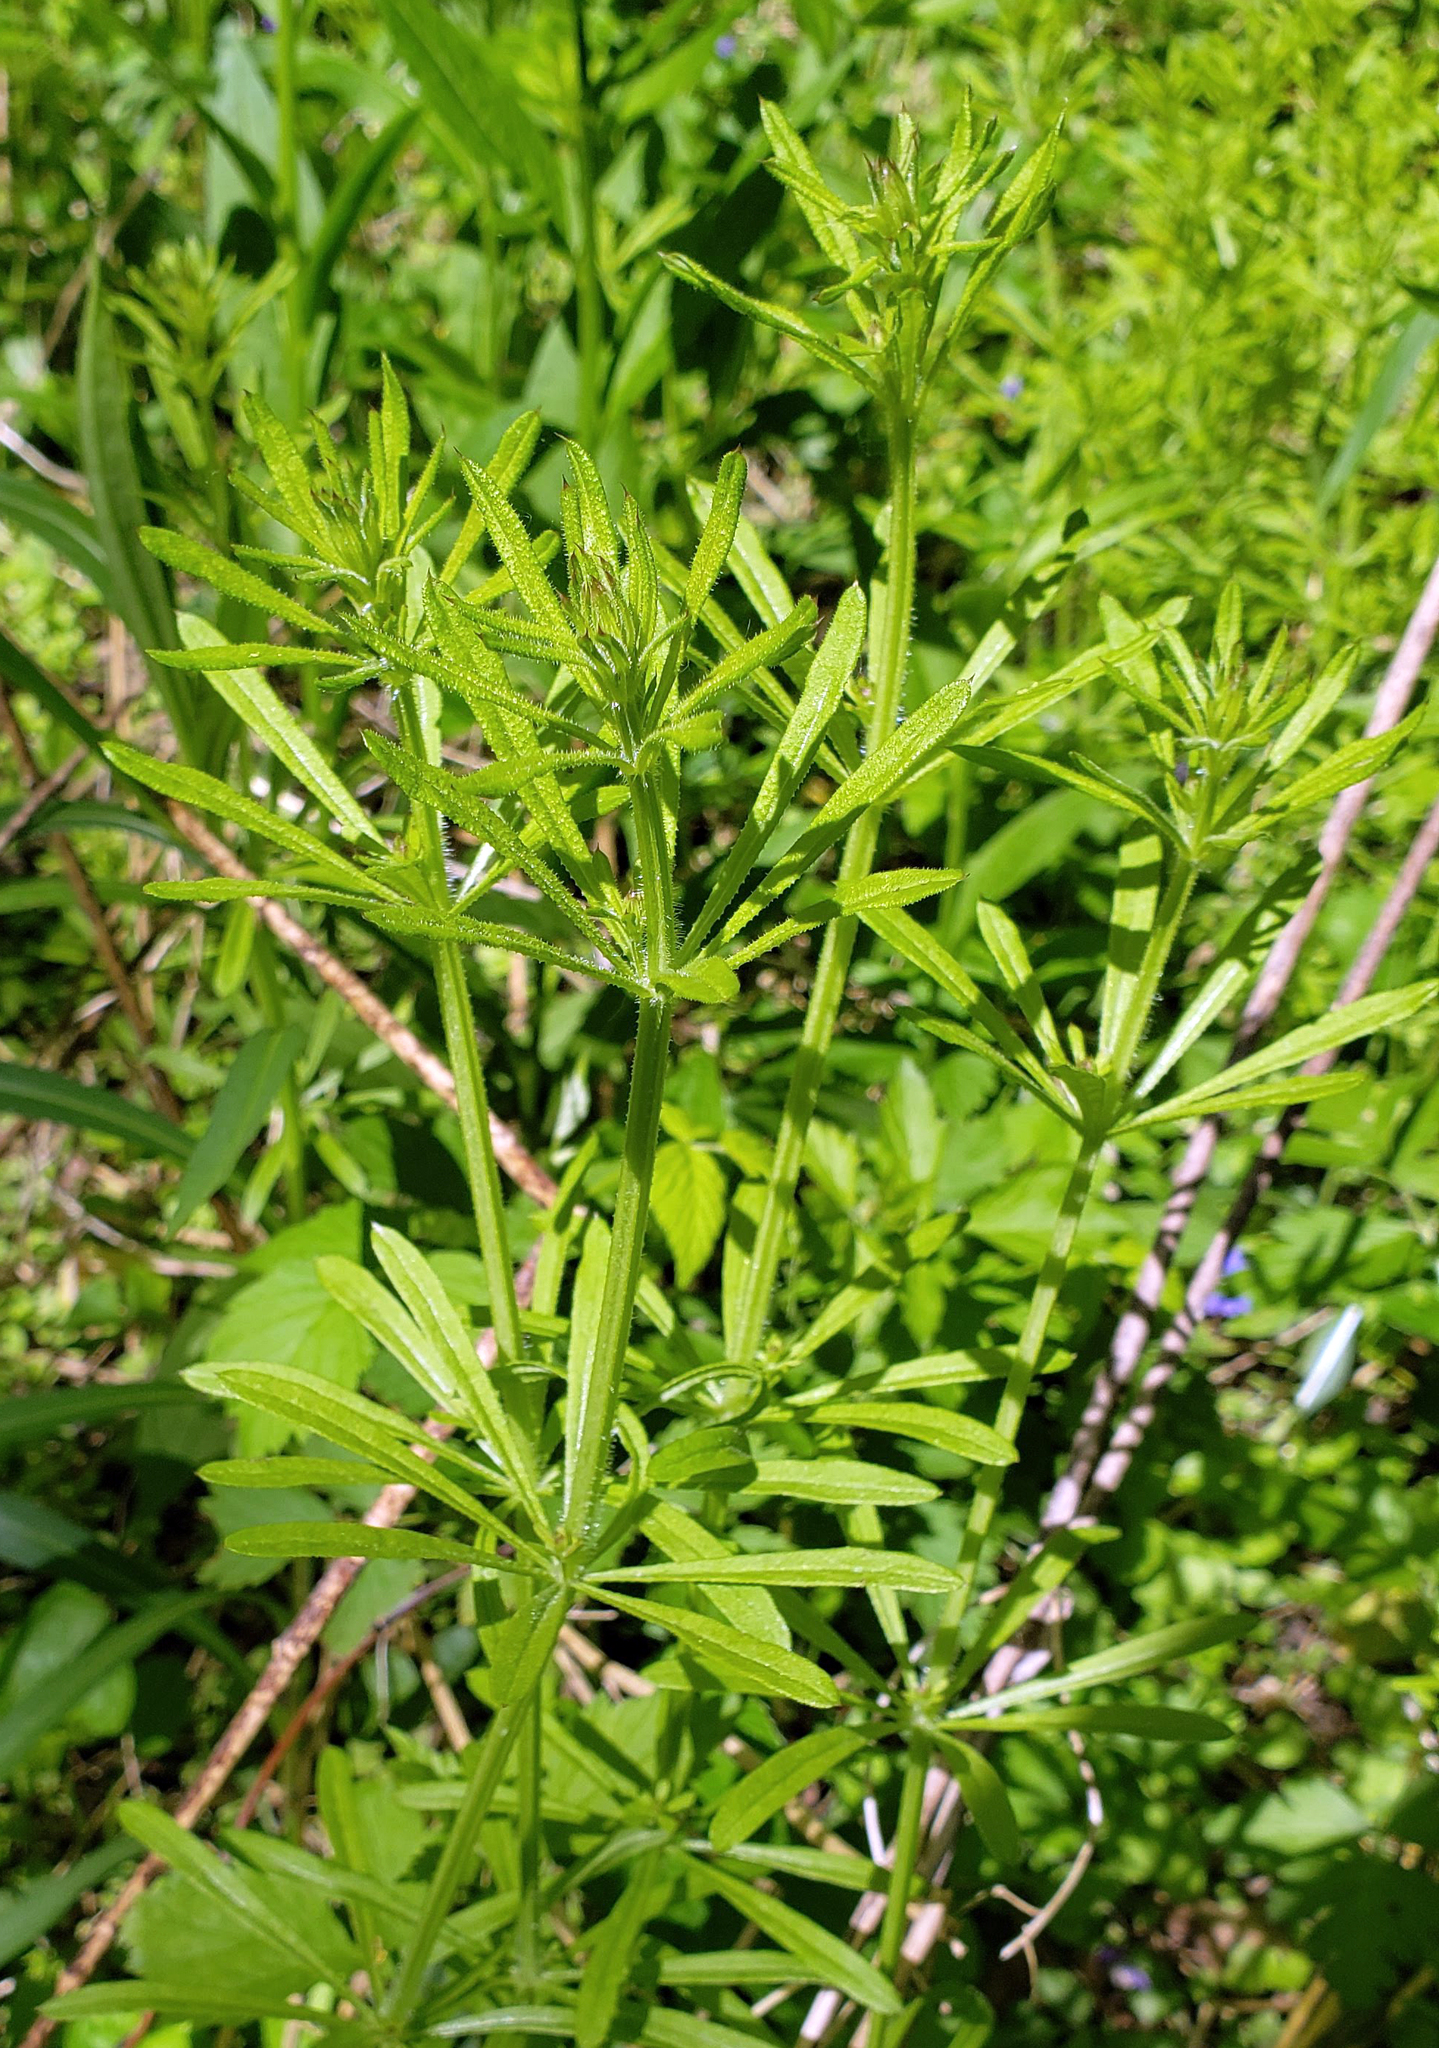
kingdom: Plantae
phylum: Tracheophyta
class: Magnoliopsida
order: Gentianales
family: Rubiaceae
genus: Galium
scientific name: Galium aparine
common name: Cleavers
